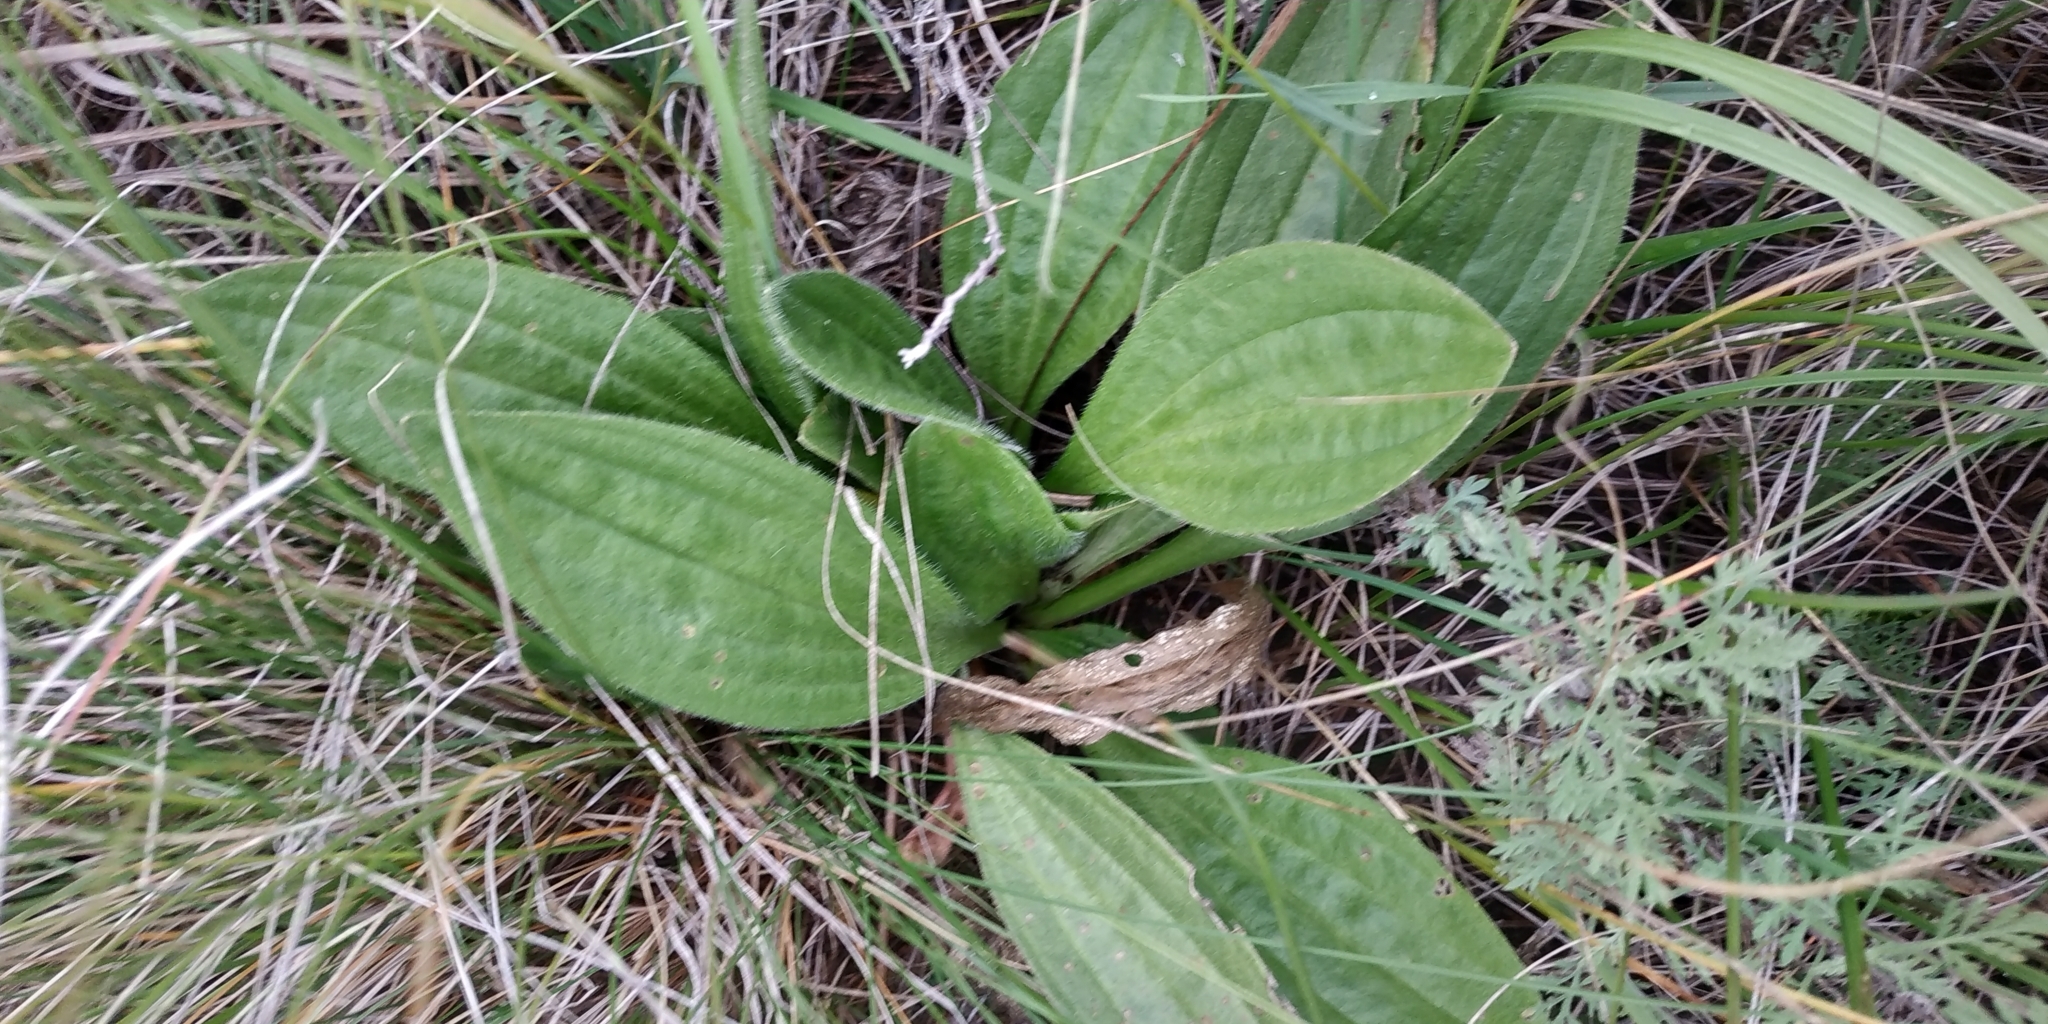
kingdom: Plantae
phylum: Tracheophyta
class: Magnoliopsida
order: Lamiales
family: Plantaginaceae
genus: Plantago
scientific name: Plantago media
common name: Hoary plantain
